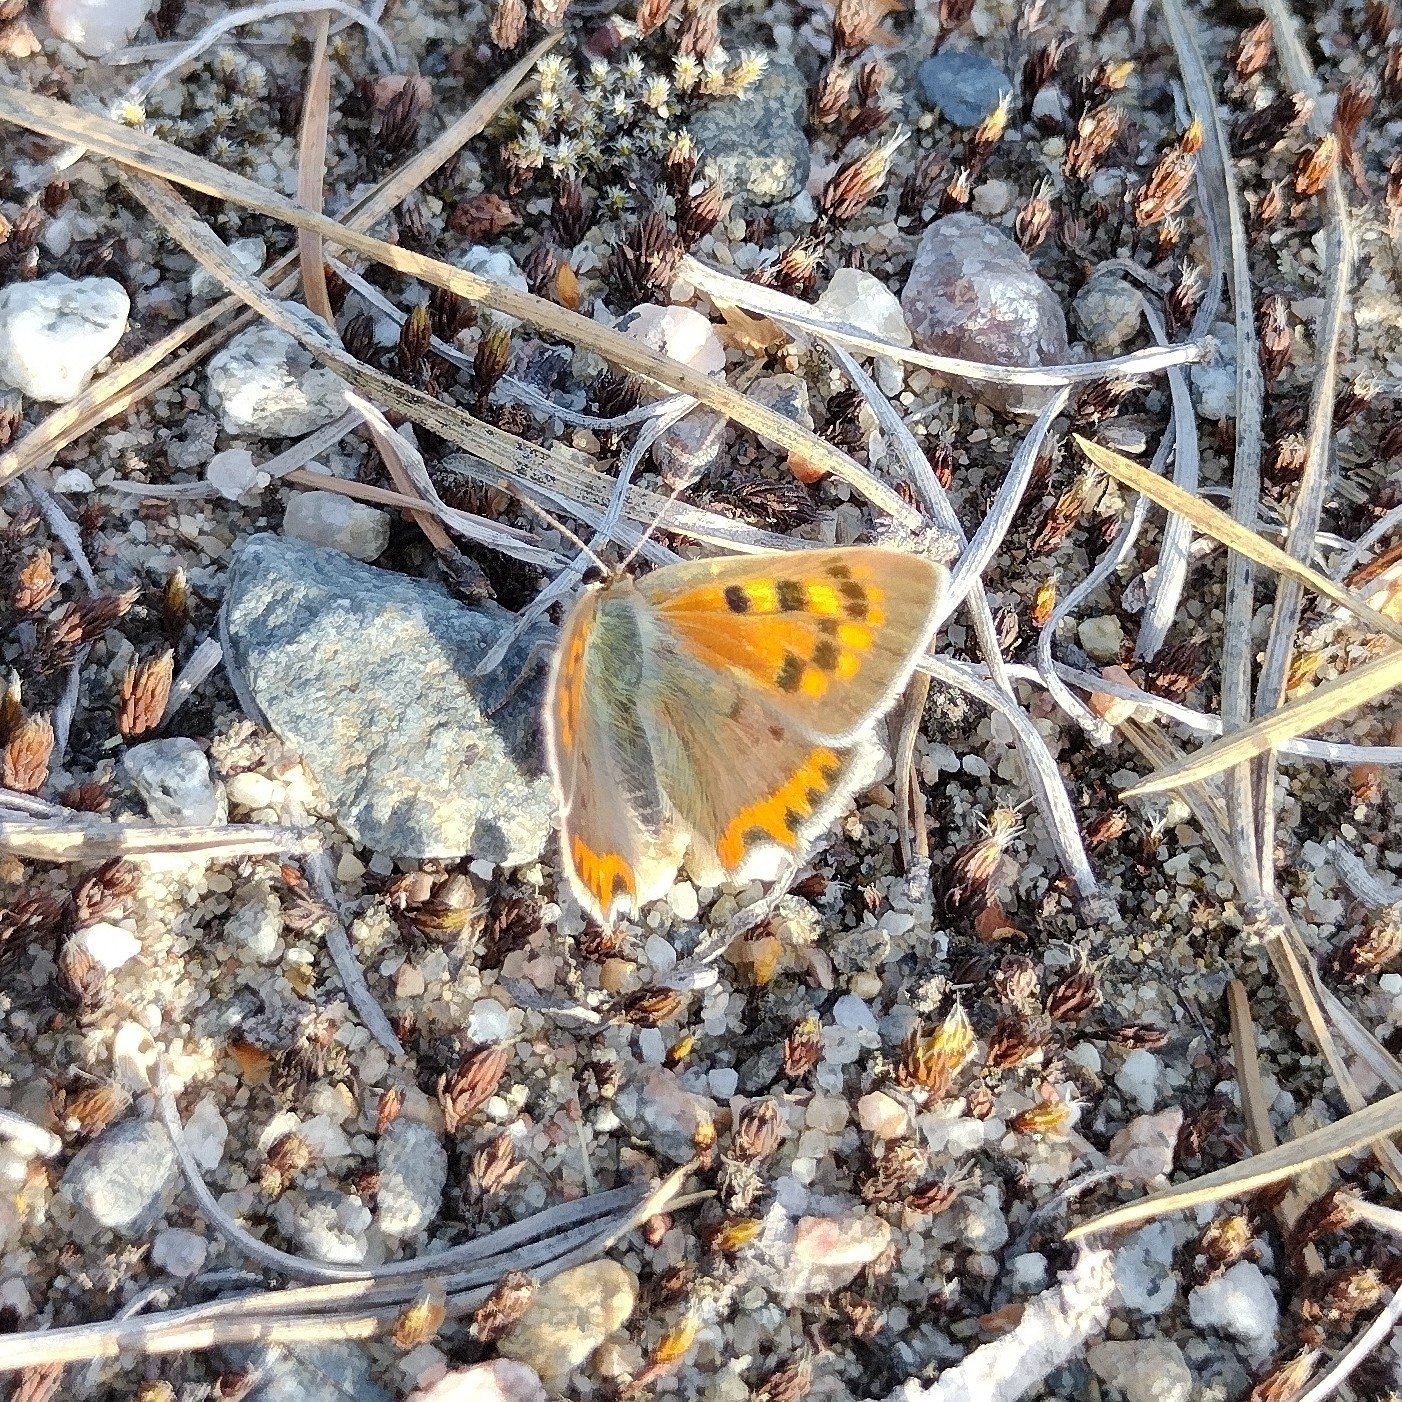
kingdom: Animalia
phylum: Arthropoda
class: Insecta
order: Lepidoptera
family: Lycaenidae
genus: Lycaena
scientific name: Lycaena phlaeas
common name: Small copper
